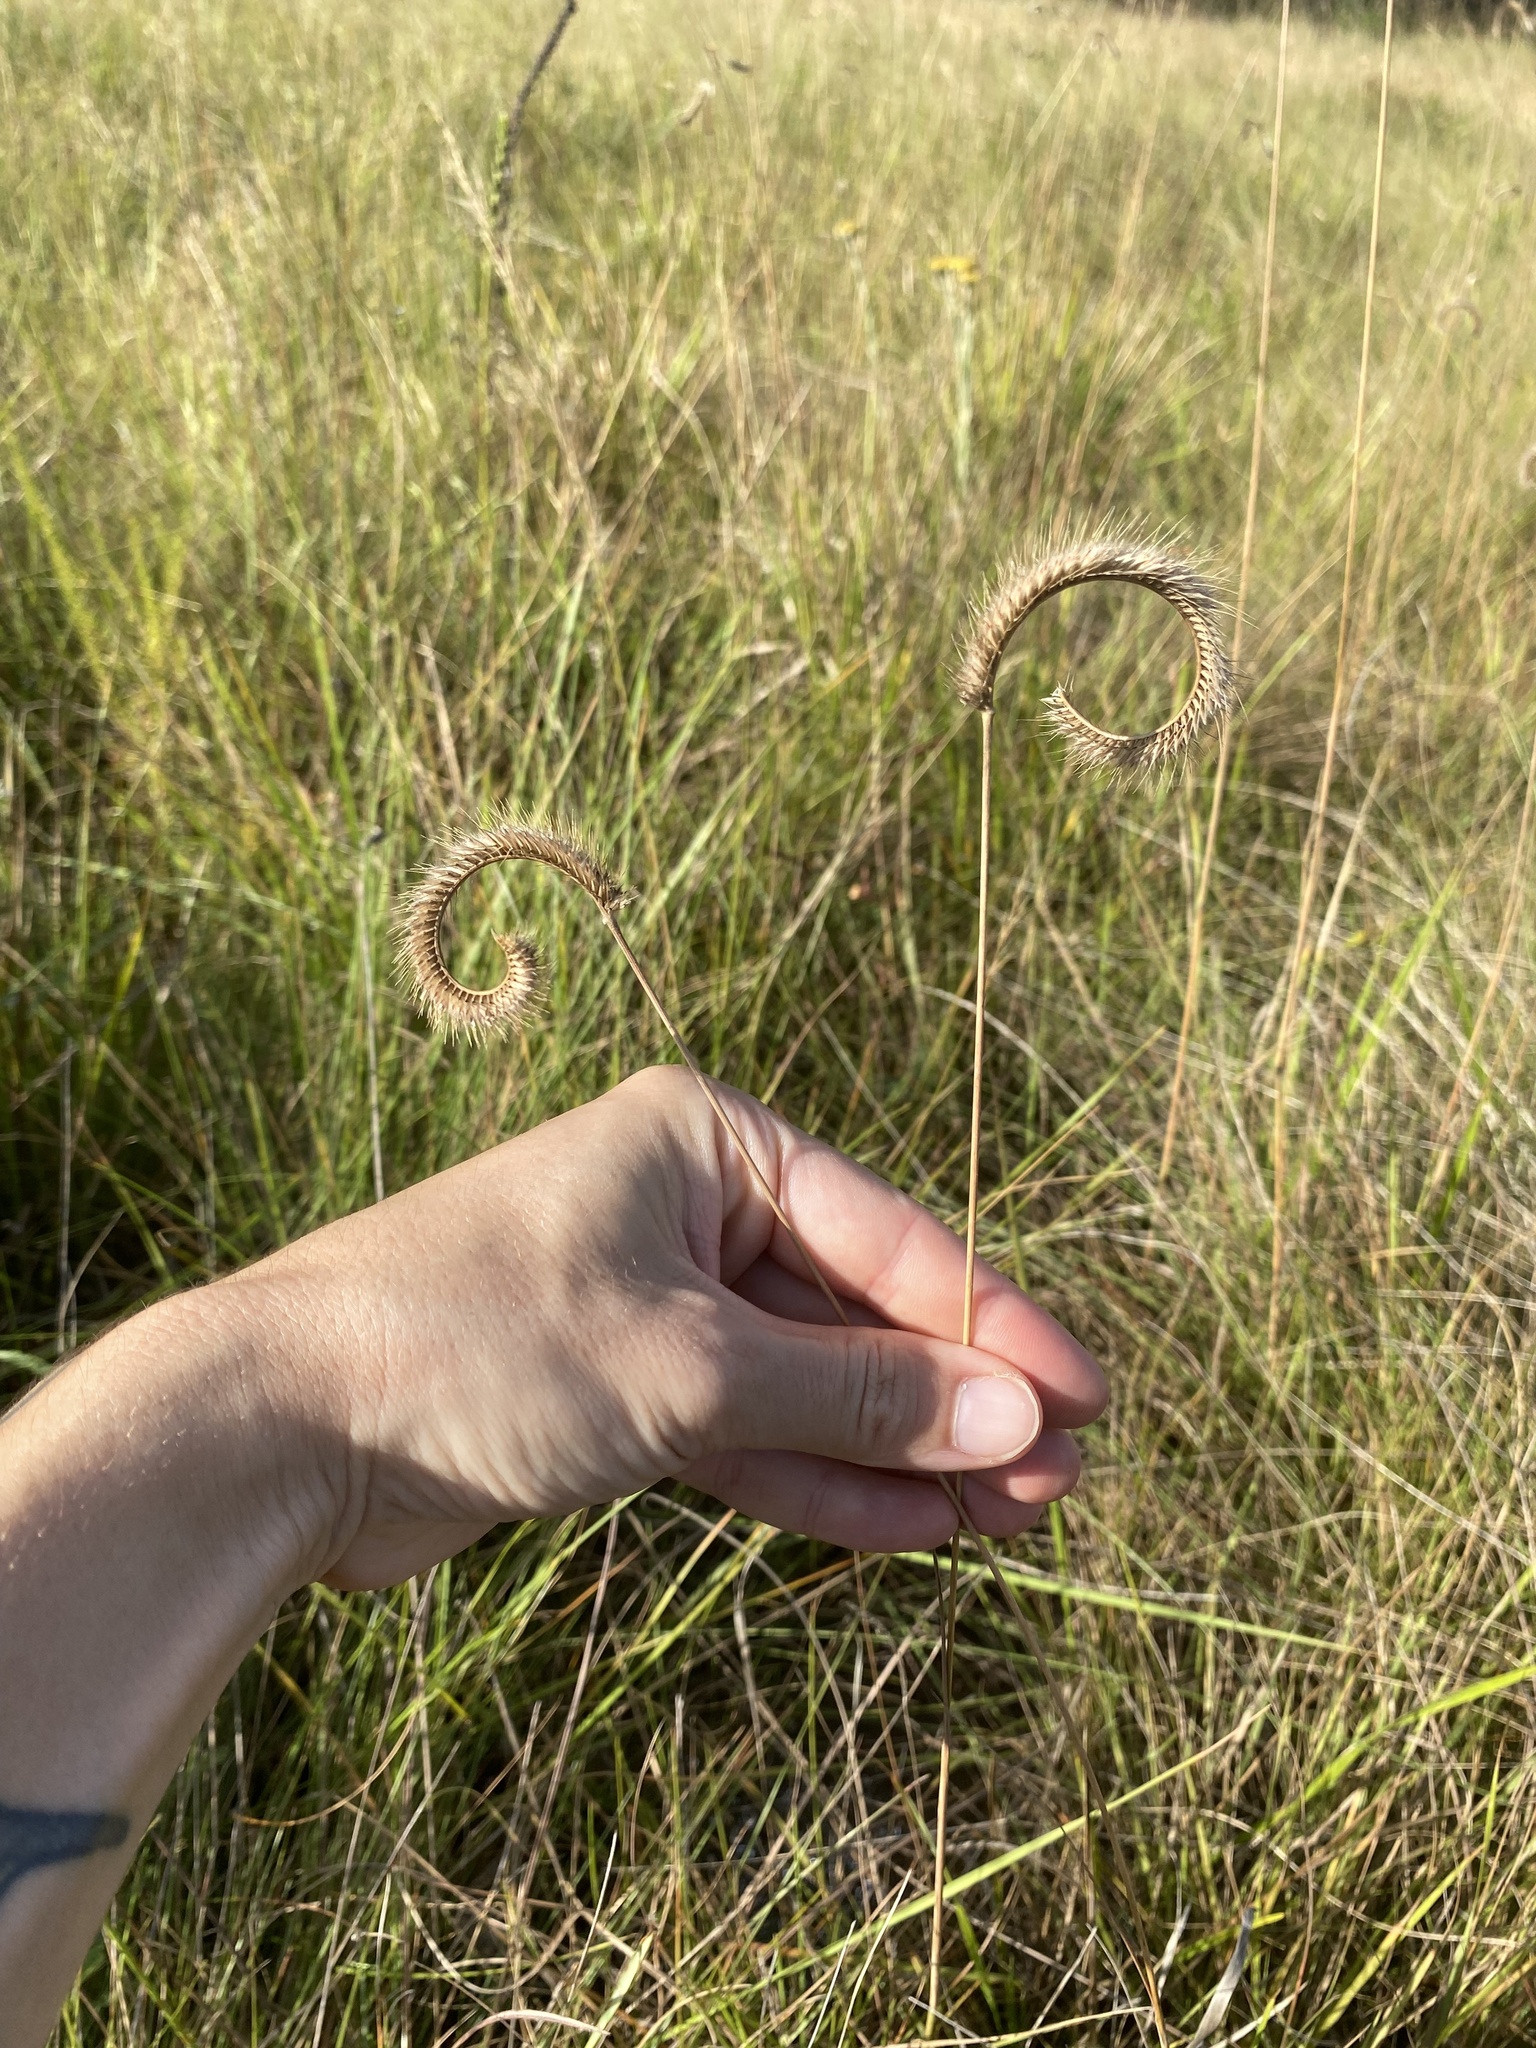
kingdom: Plantae
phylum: Tracheophyta
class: Liliopsida
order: Poales
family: Poaceae
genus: Ctenium
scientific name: Ctenium concinnum
